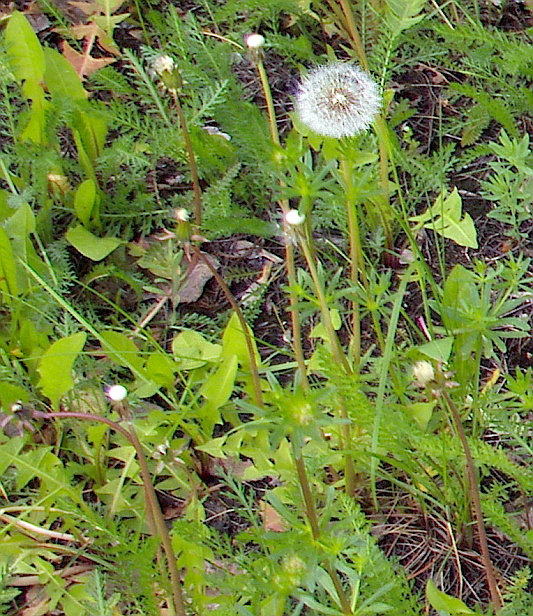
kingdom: Plantae
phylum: Tracheophyta
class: Magnoliopsida
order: Asterales
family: Asteraceae
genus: Taraxacum
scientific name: Taraxacum officinale
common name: Common dandelion
